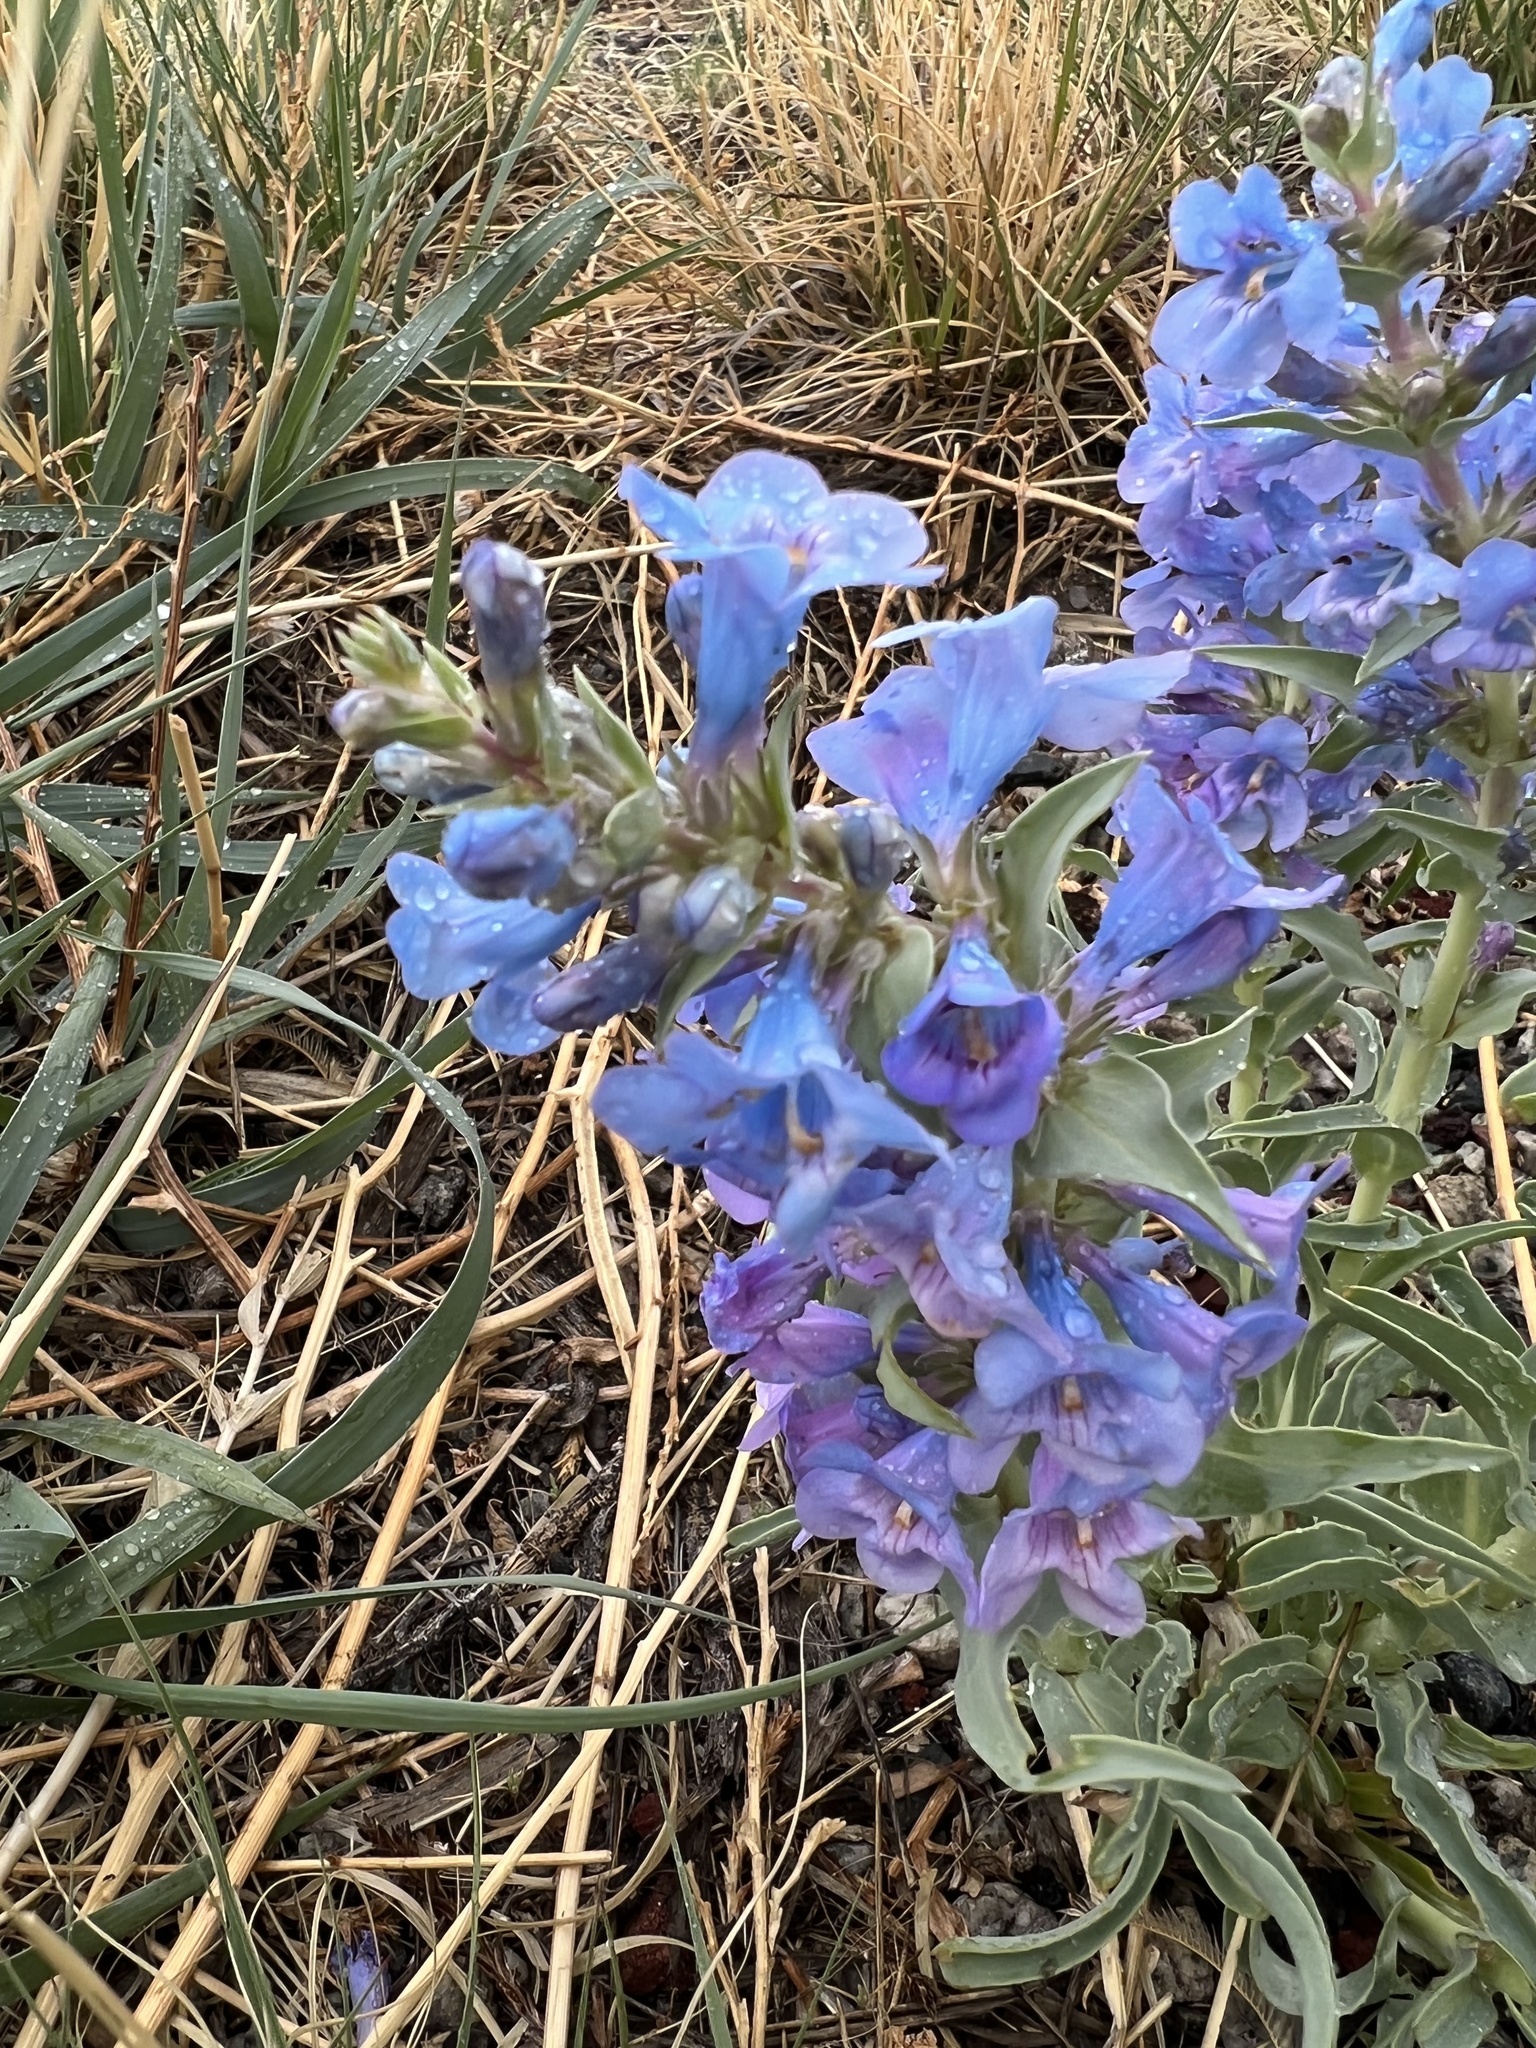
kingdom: Plantae
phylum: Tracheophyta
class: Magnoliopsida
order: Lamiales
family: Plantaginaceae
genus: Penstemon
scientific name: Penstemon angustifolius
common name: Narrow beardtongue
